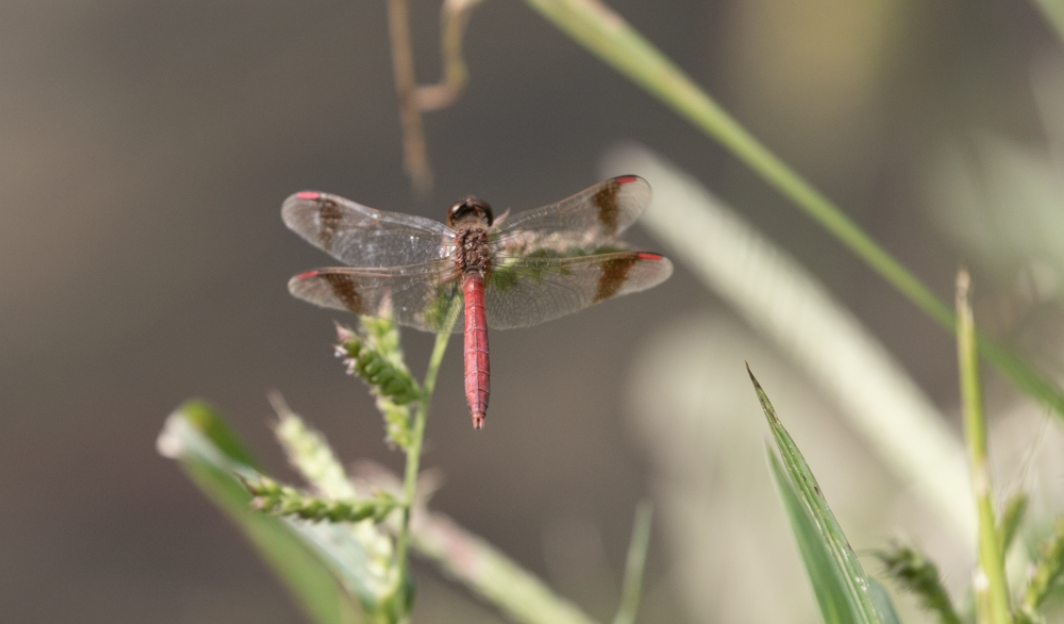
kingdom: Animalia
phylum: Arthropoda
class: Insecta
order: Odonata
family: Libellulidae
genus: Sympetrum
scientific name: Sympetrum pedemontanum
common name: Banded darter
